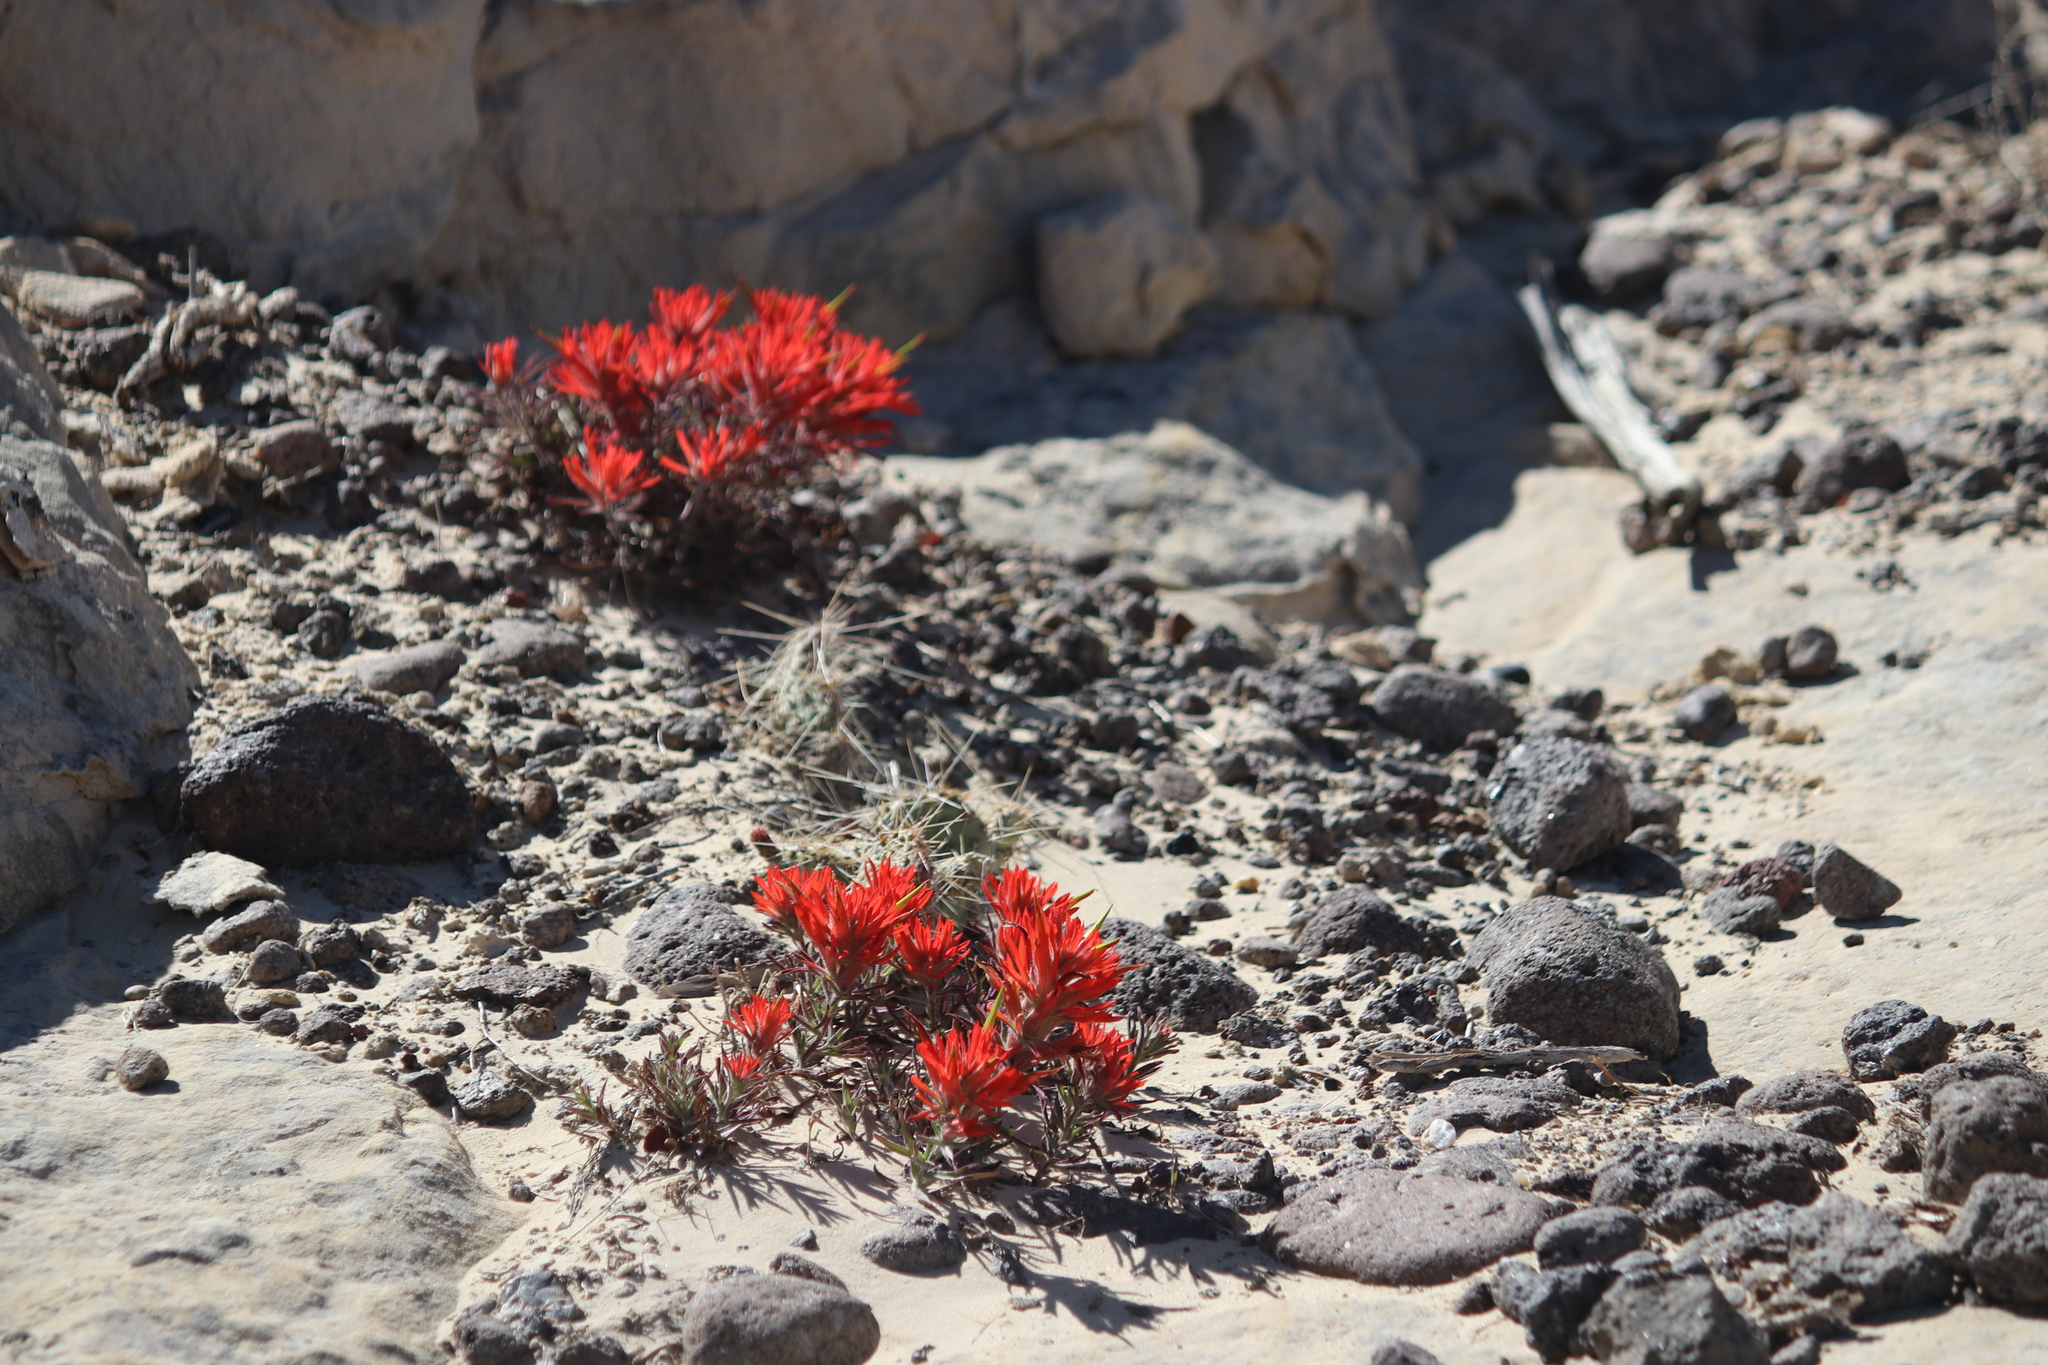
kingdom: Plantae
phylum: Tracheophyta
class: Magnoliopsida
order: Lamiales
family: Orobanchaceae
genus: Castilleja
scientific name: Castilleja scabrida
